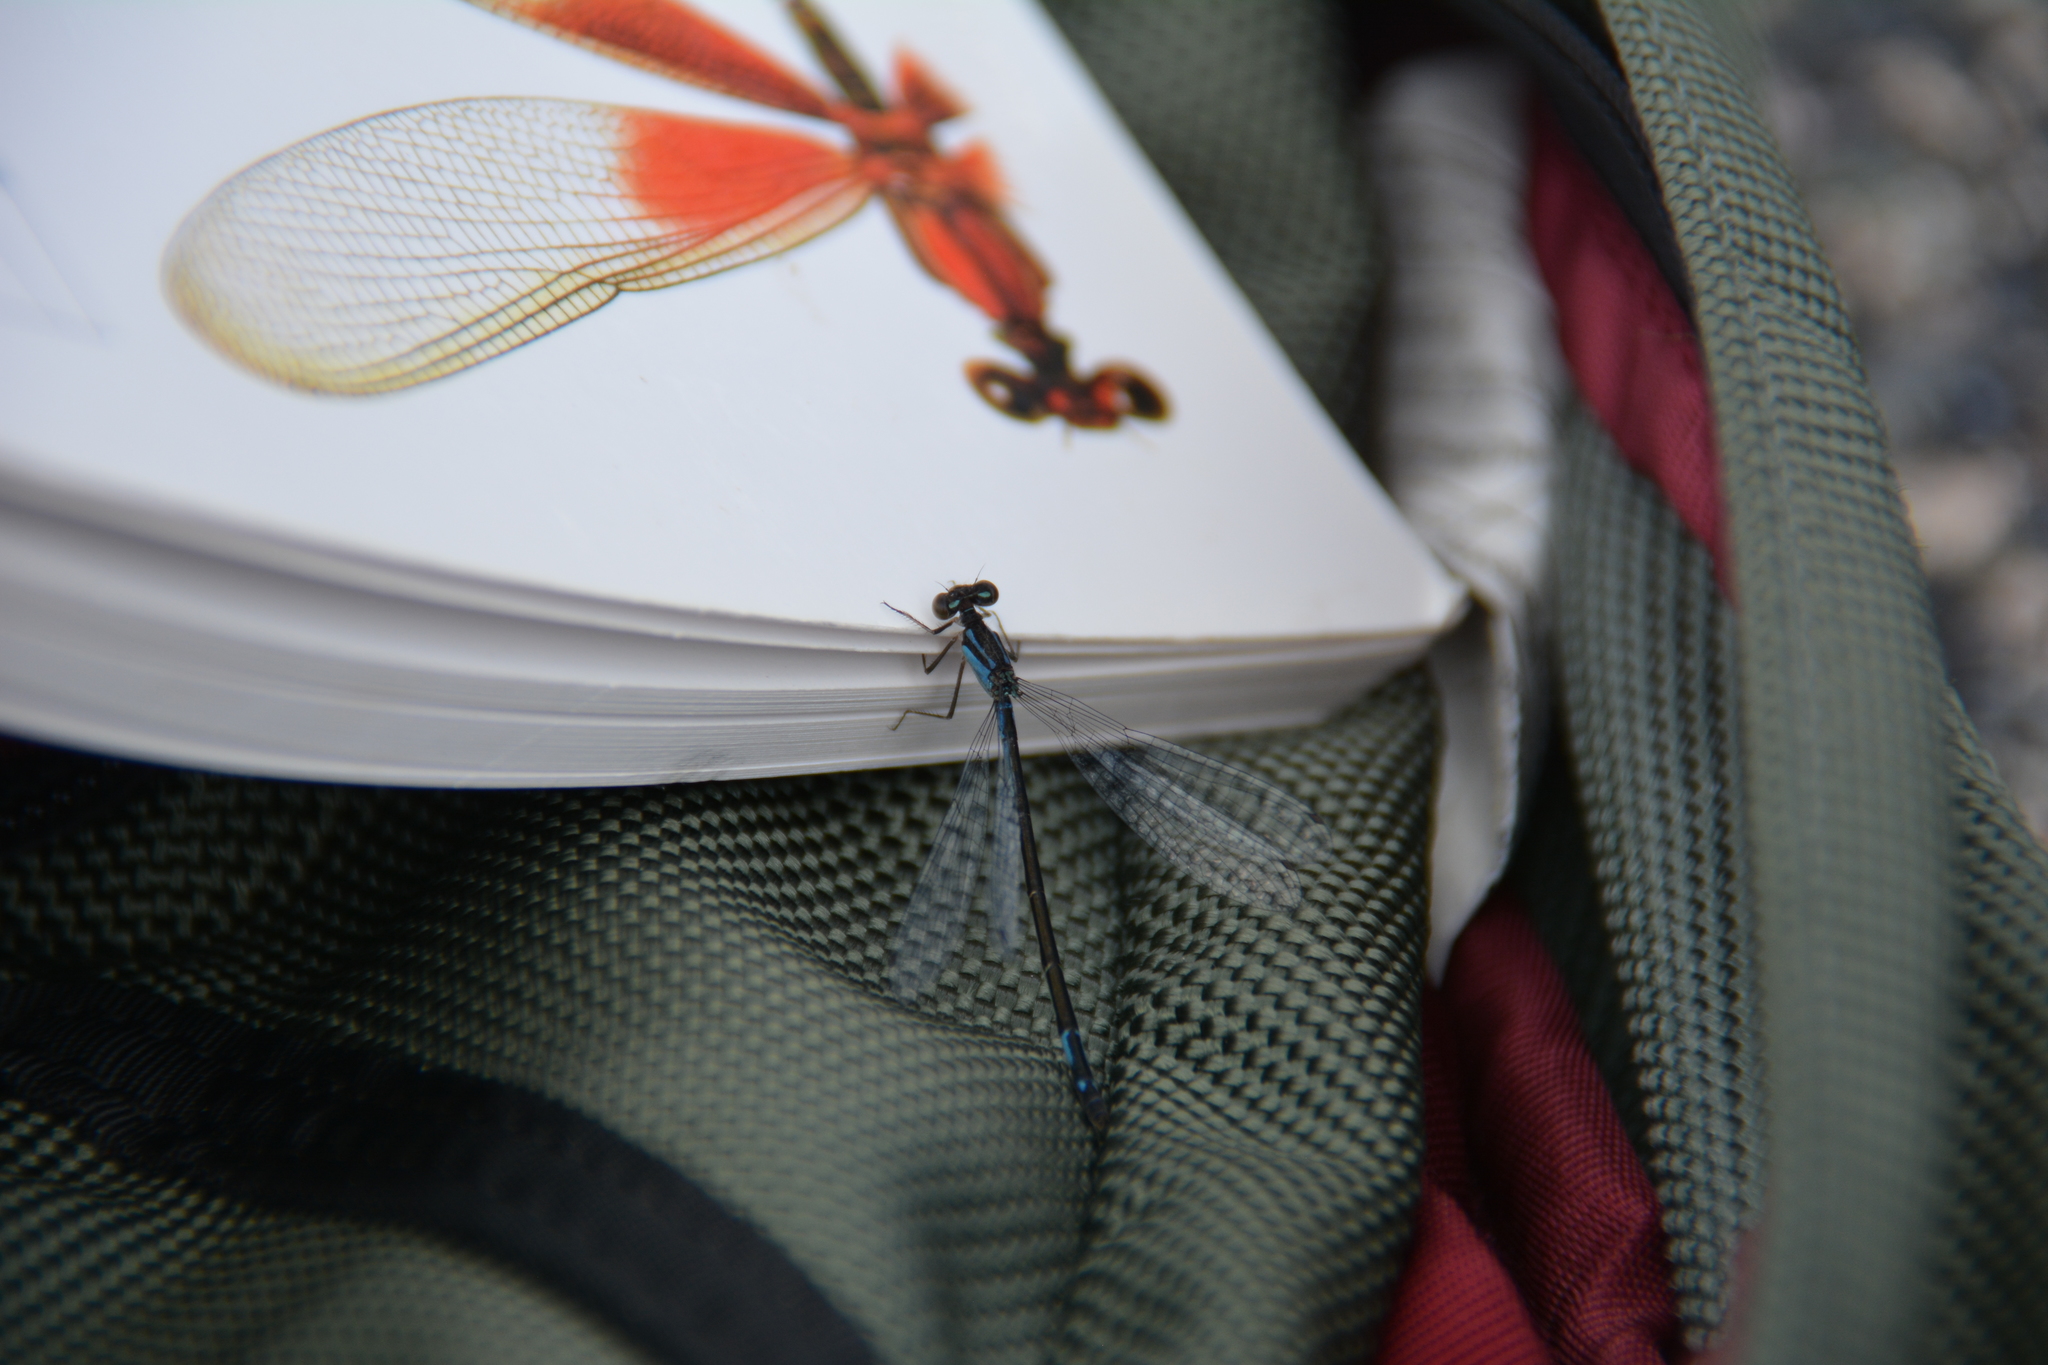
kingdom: Animalia
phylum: Arthropoda
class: Insecta
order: Odonata
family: Coenagrionidae
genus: Enallagma
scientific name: Enallagma aspersum
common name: Azure bluet
